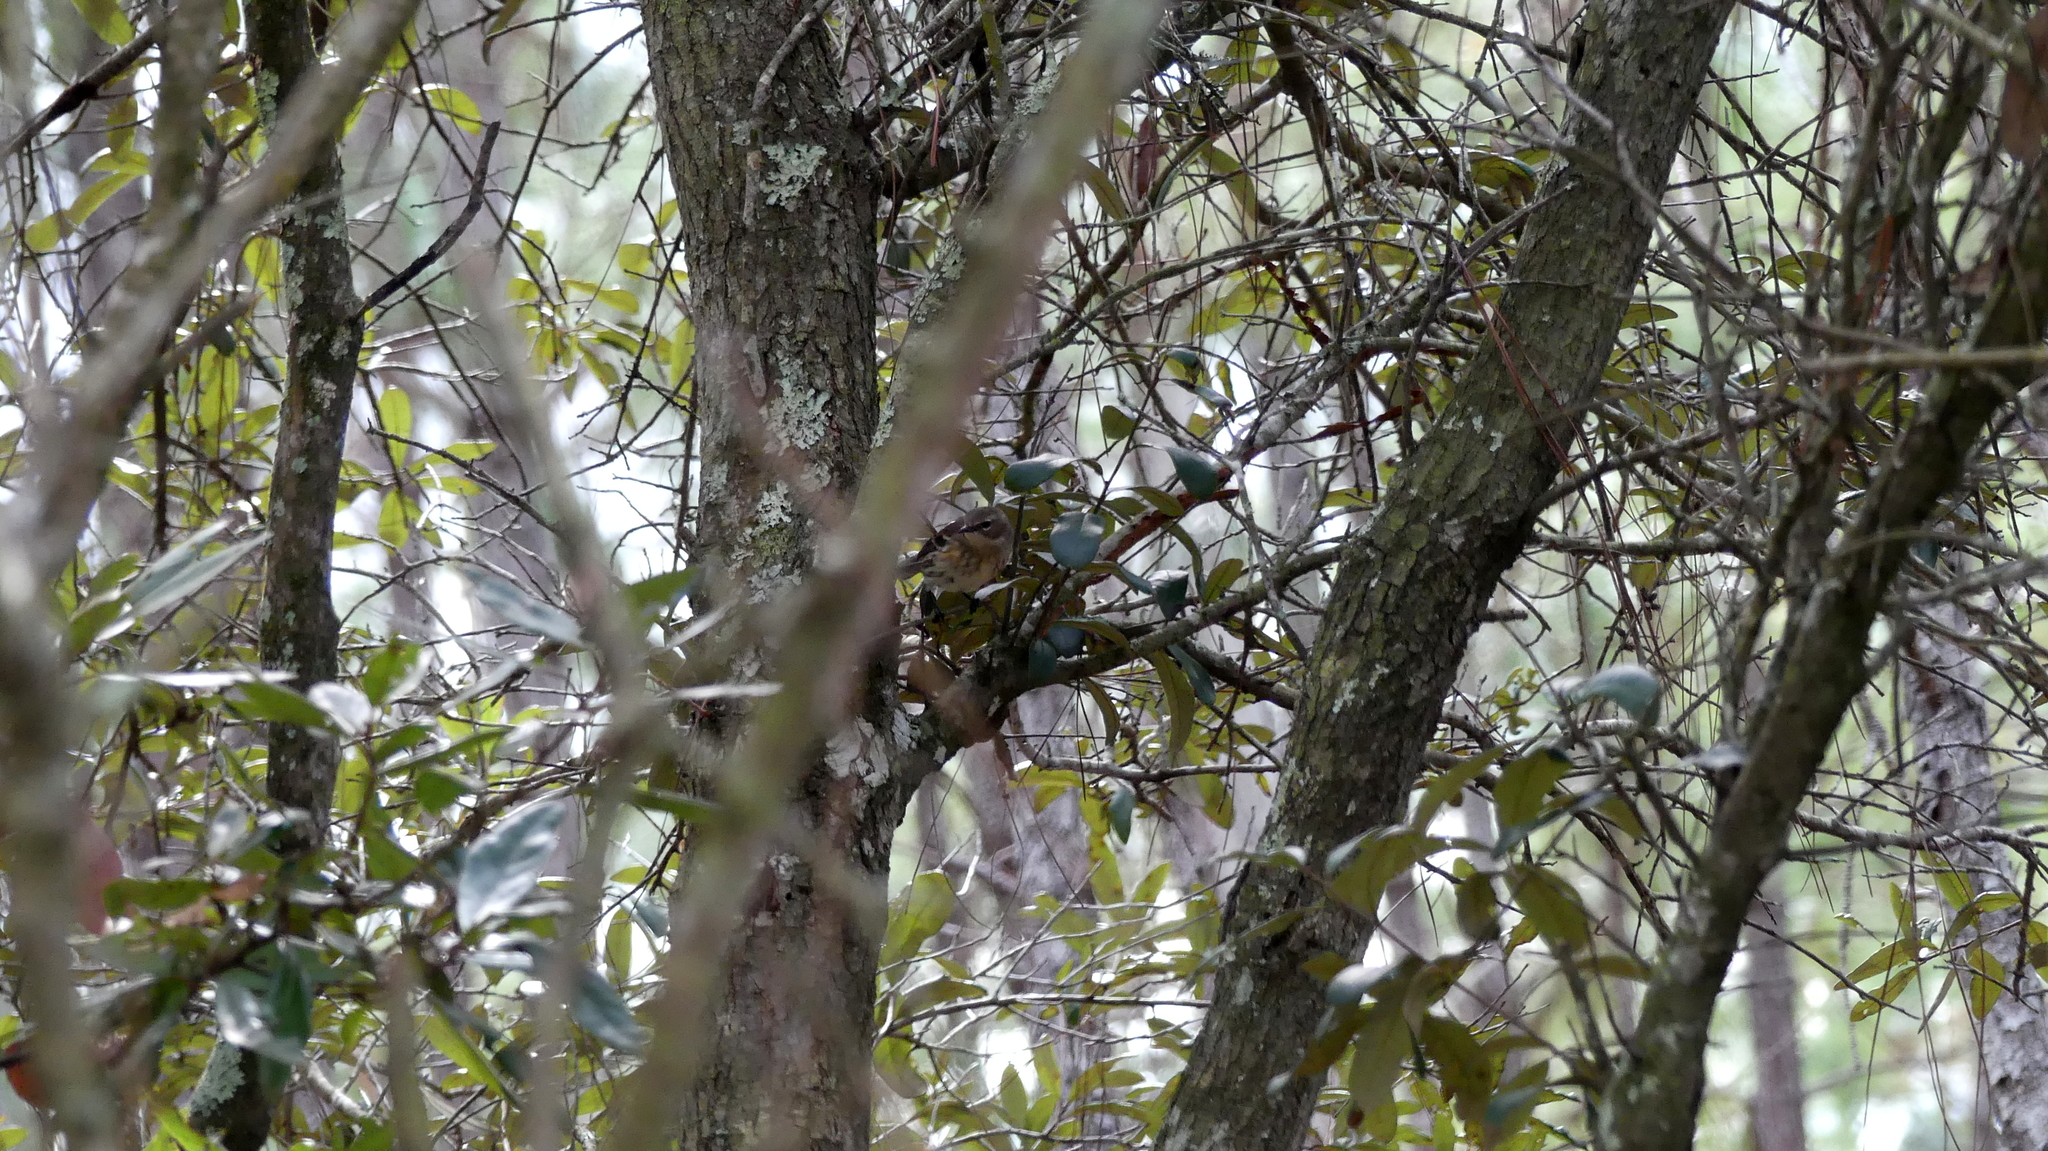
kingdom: Animalia
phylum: Chordata
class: Aves
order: Passeriformes
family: Parulidae
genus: Setophaga
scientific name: Setophaga coronata
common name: Myrtle warbler
